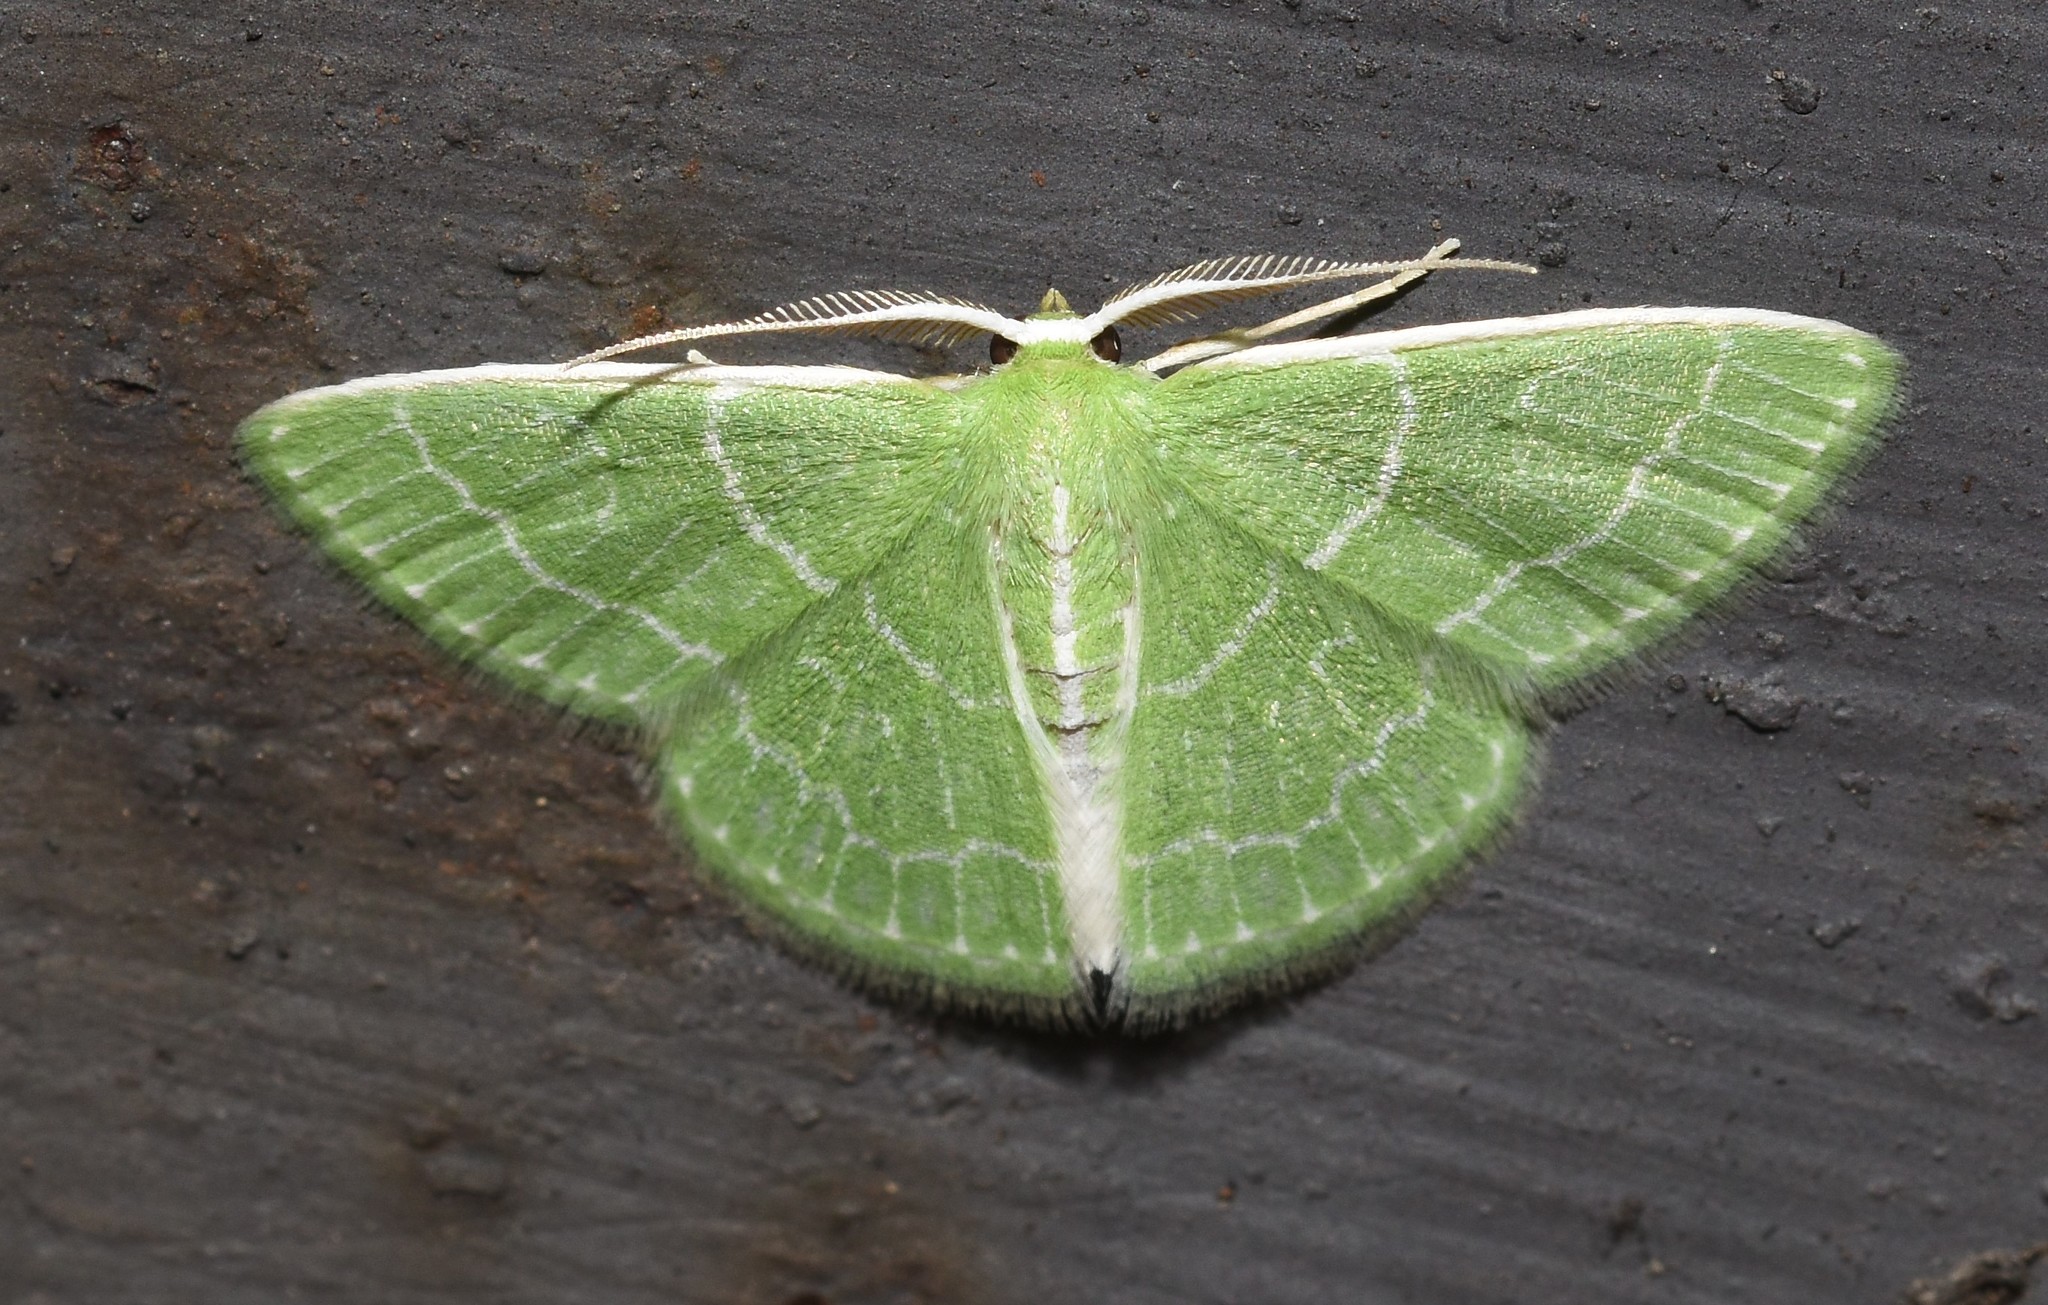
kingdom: Animalia
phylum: Arthropoda
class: Insecta
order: Lepidoptera
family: Geometridae
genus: Synchlora
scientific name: Synchlora aerata
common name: Wavy-lined emerald
